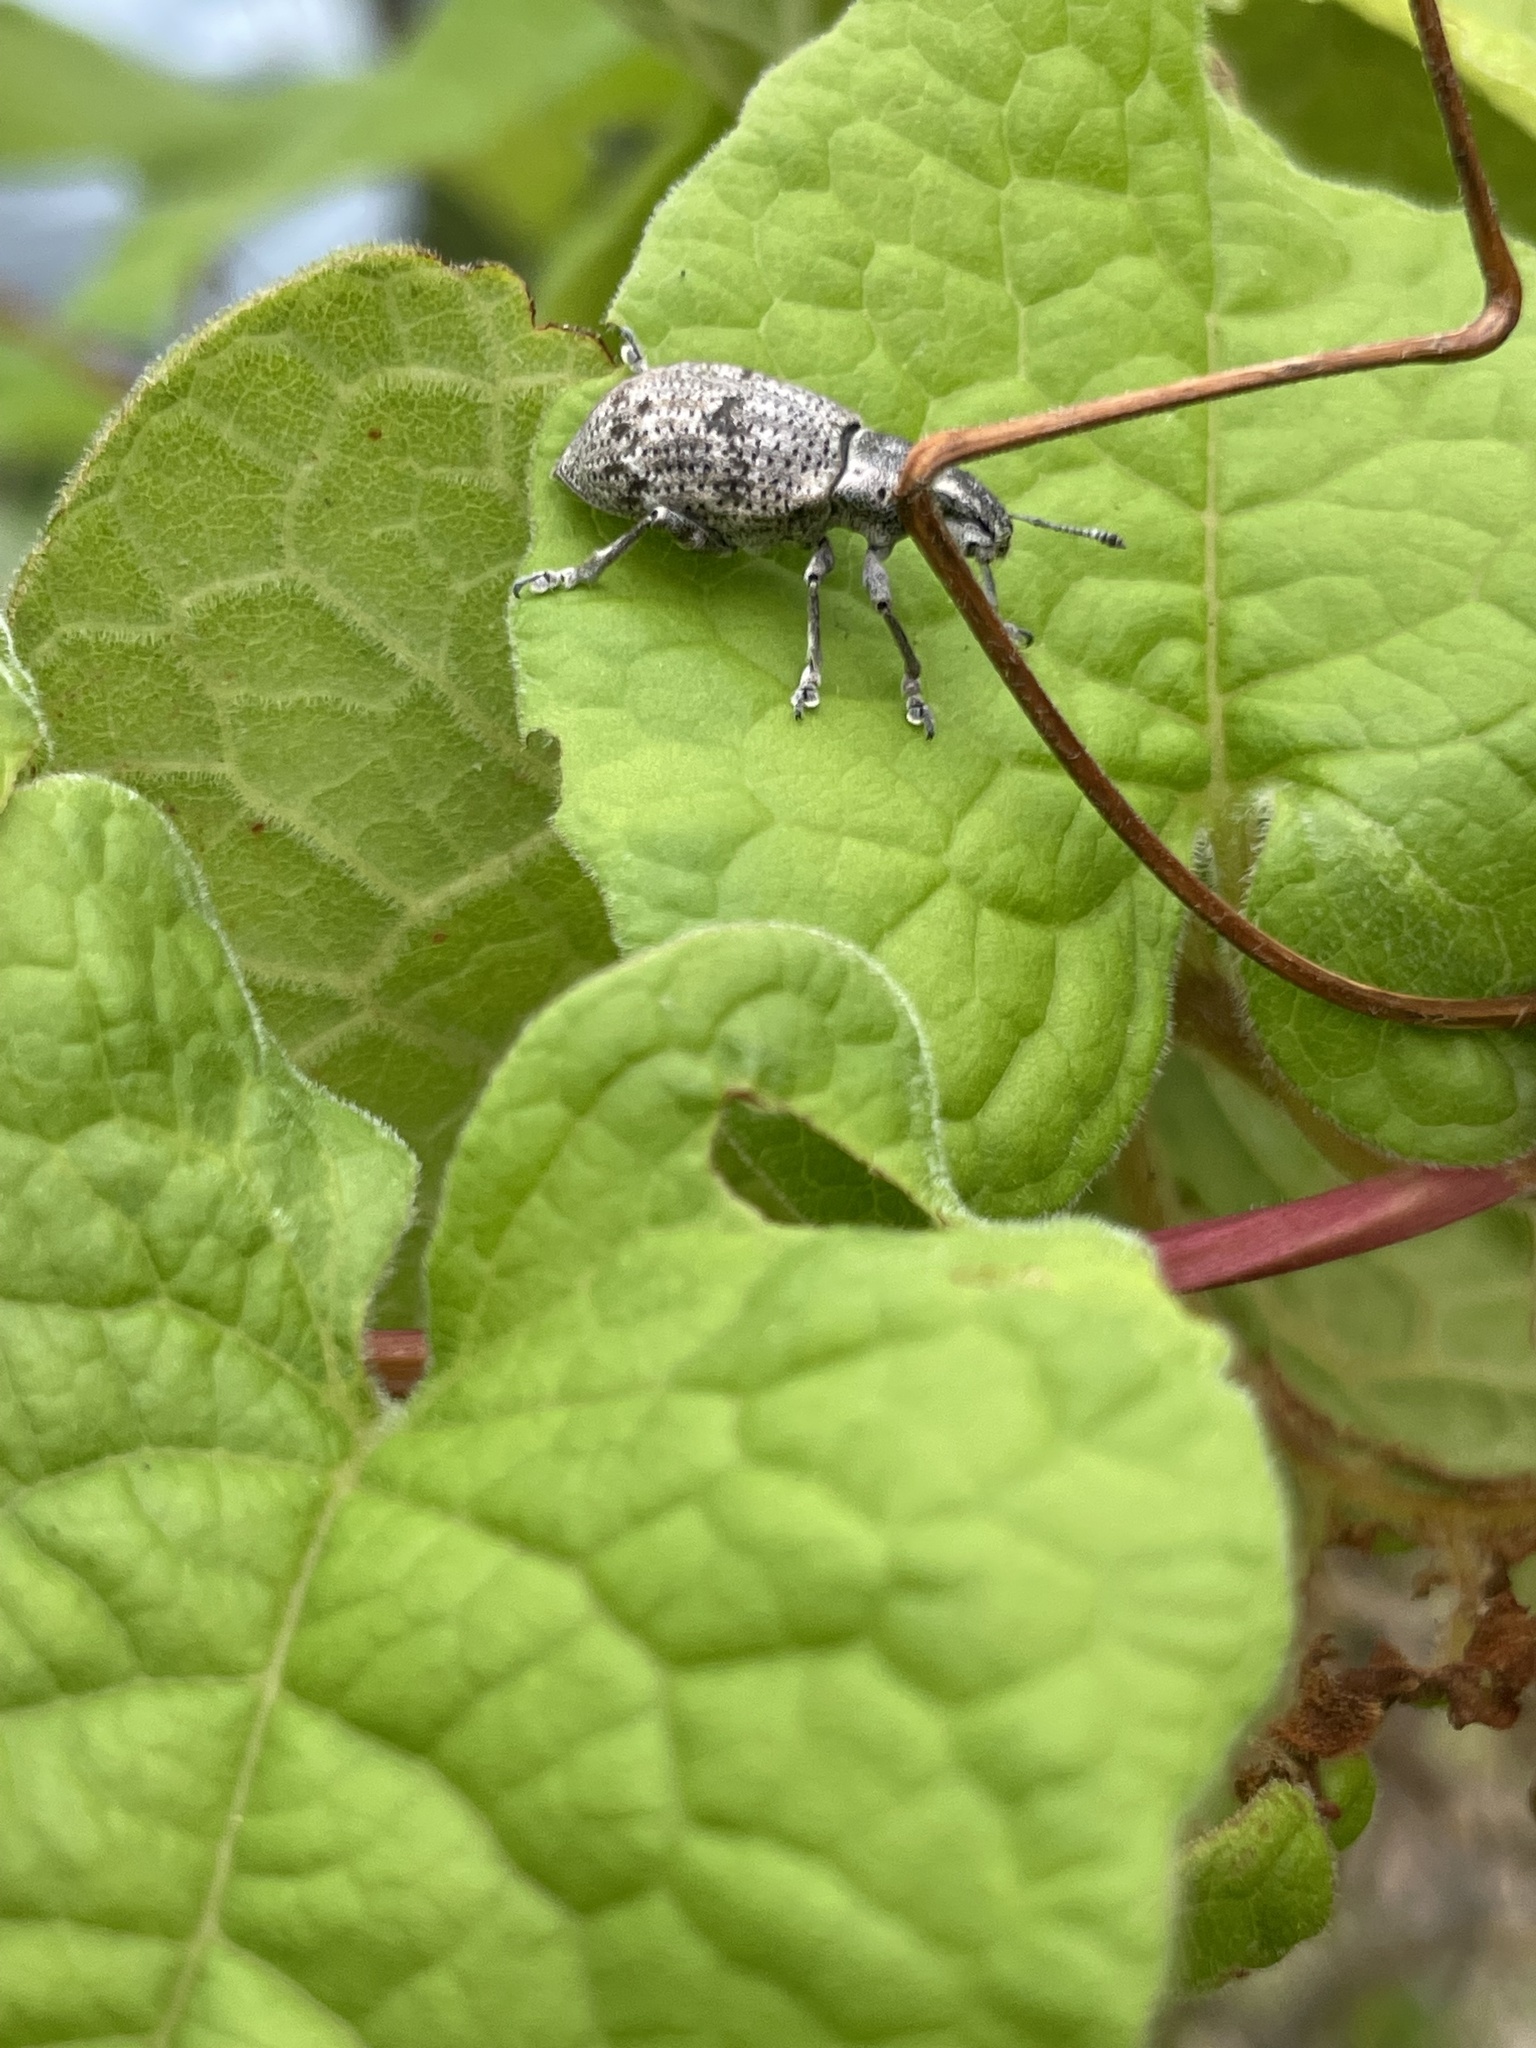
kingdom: Animalia
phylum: Arthropoda
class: Insecta
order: Coleoptera
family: Curculionidae
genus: Ericydeus
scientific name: Ericydeus lautus
